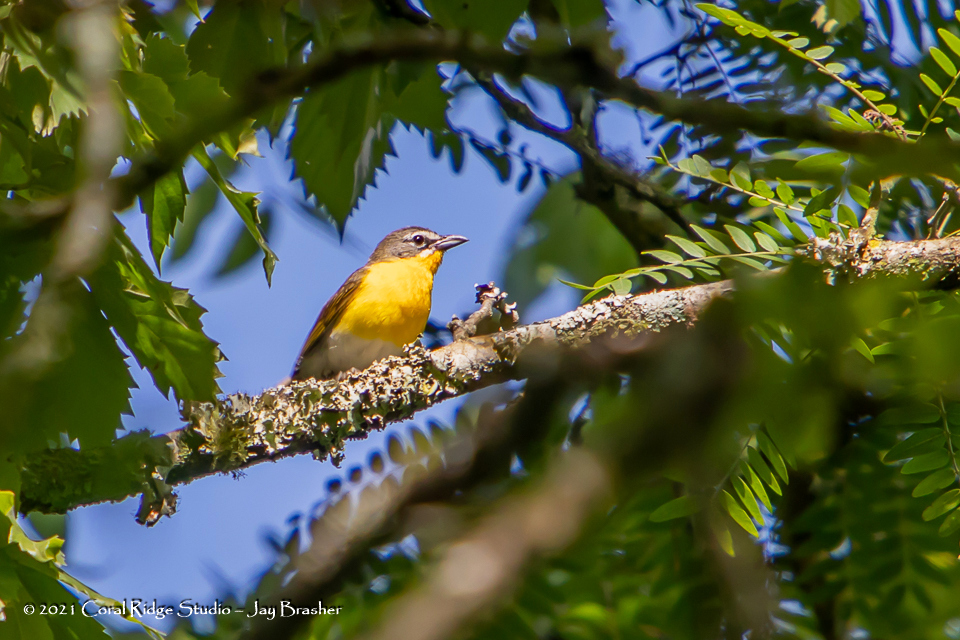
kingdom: Animalia
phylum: Chordata
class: Aves
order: Passeriformes
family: Parulidae
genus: Icteria
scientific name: Icteria virens
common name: Yellow-breasted chat
